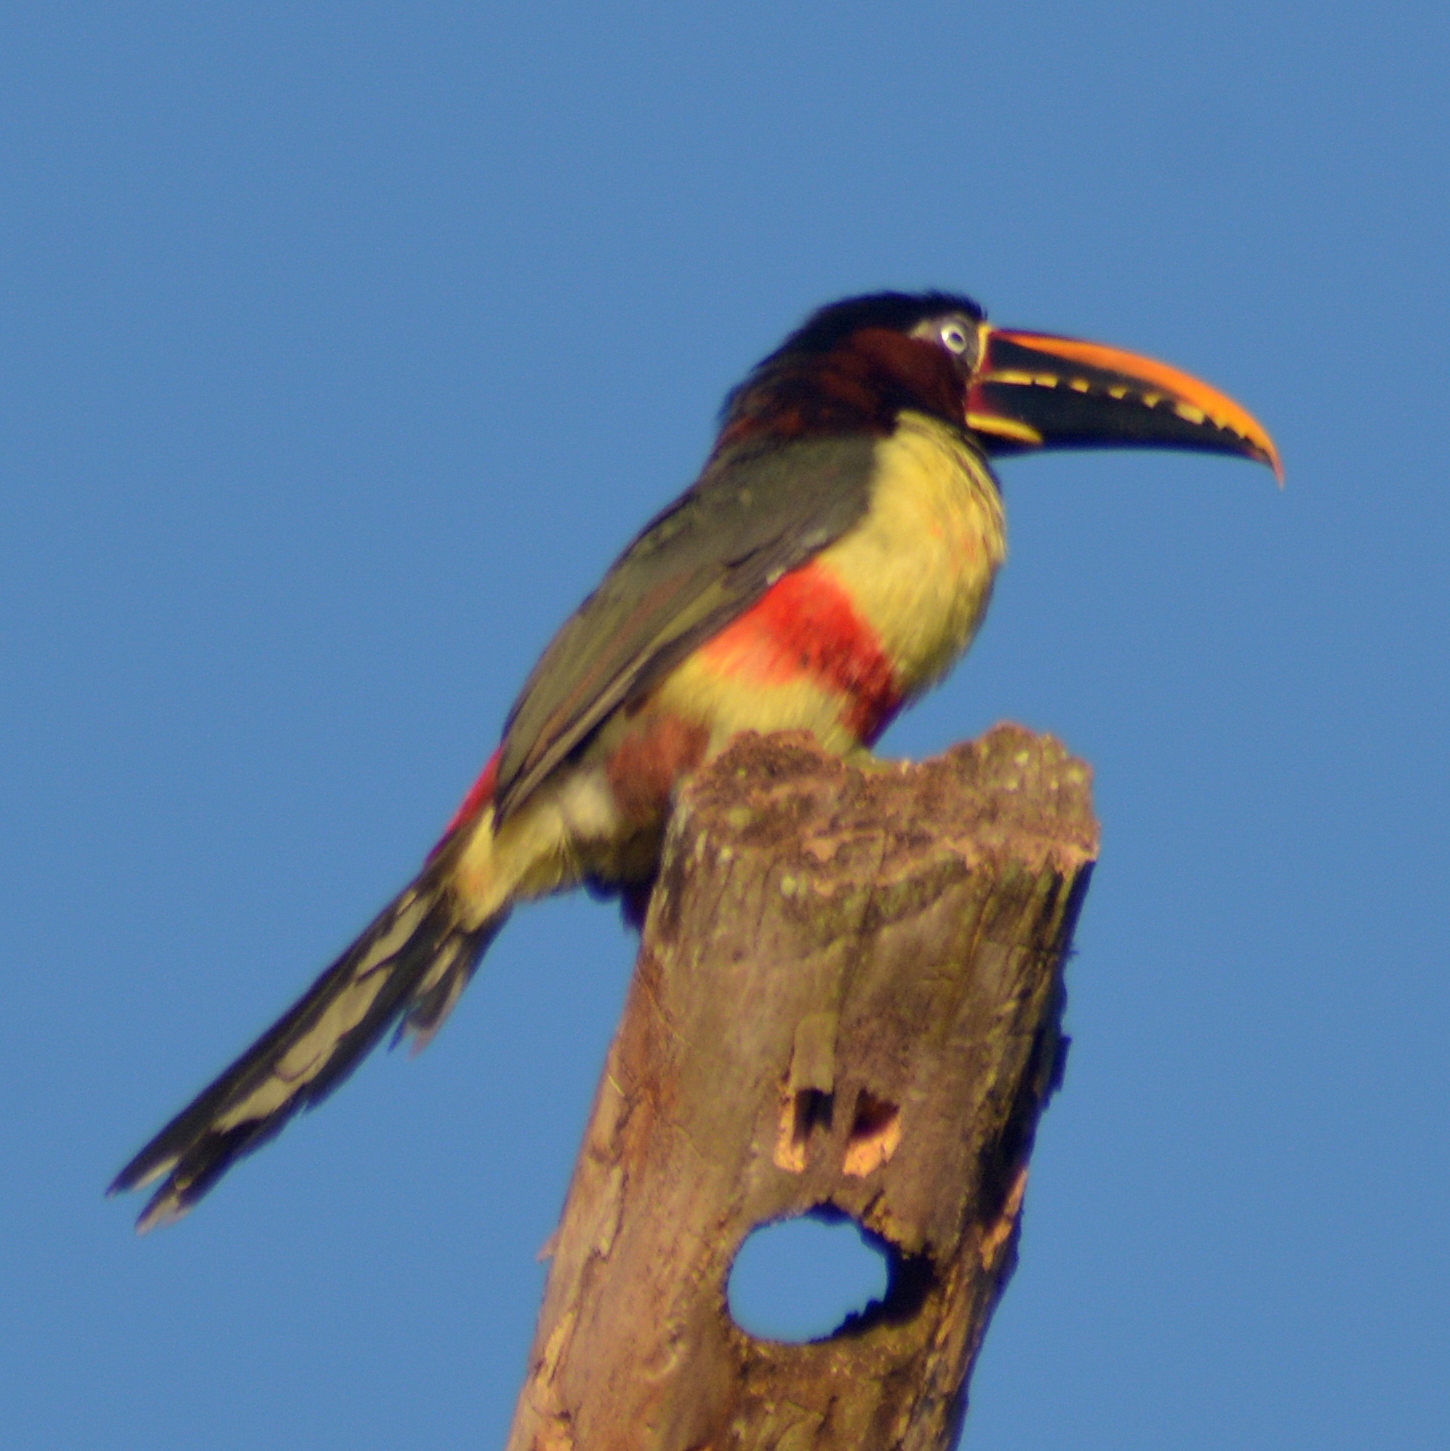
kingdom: Animalia
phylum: Chordata
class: Aves
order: Piciformes
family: Ramphastidae
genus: Pteroglossus
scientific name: Pteroglossus castanotis
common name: Chestnut-eared aracari
